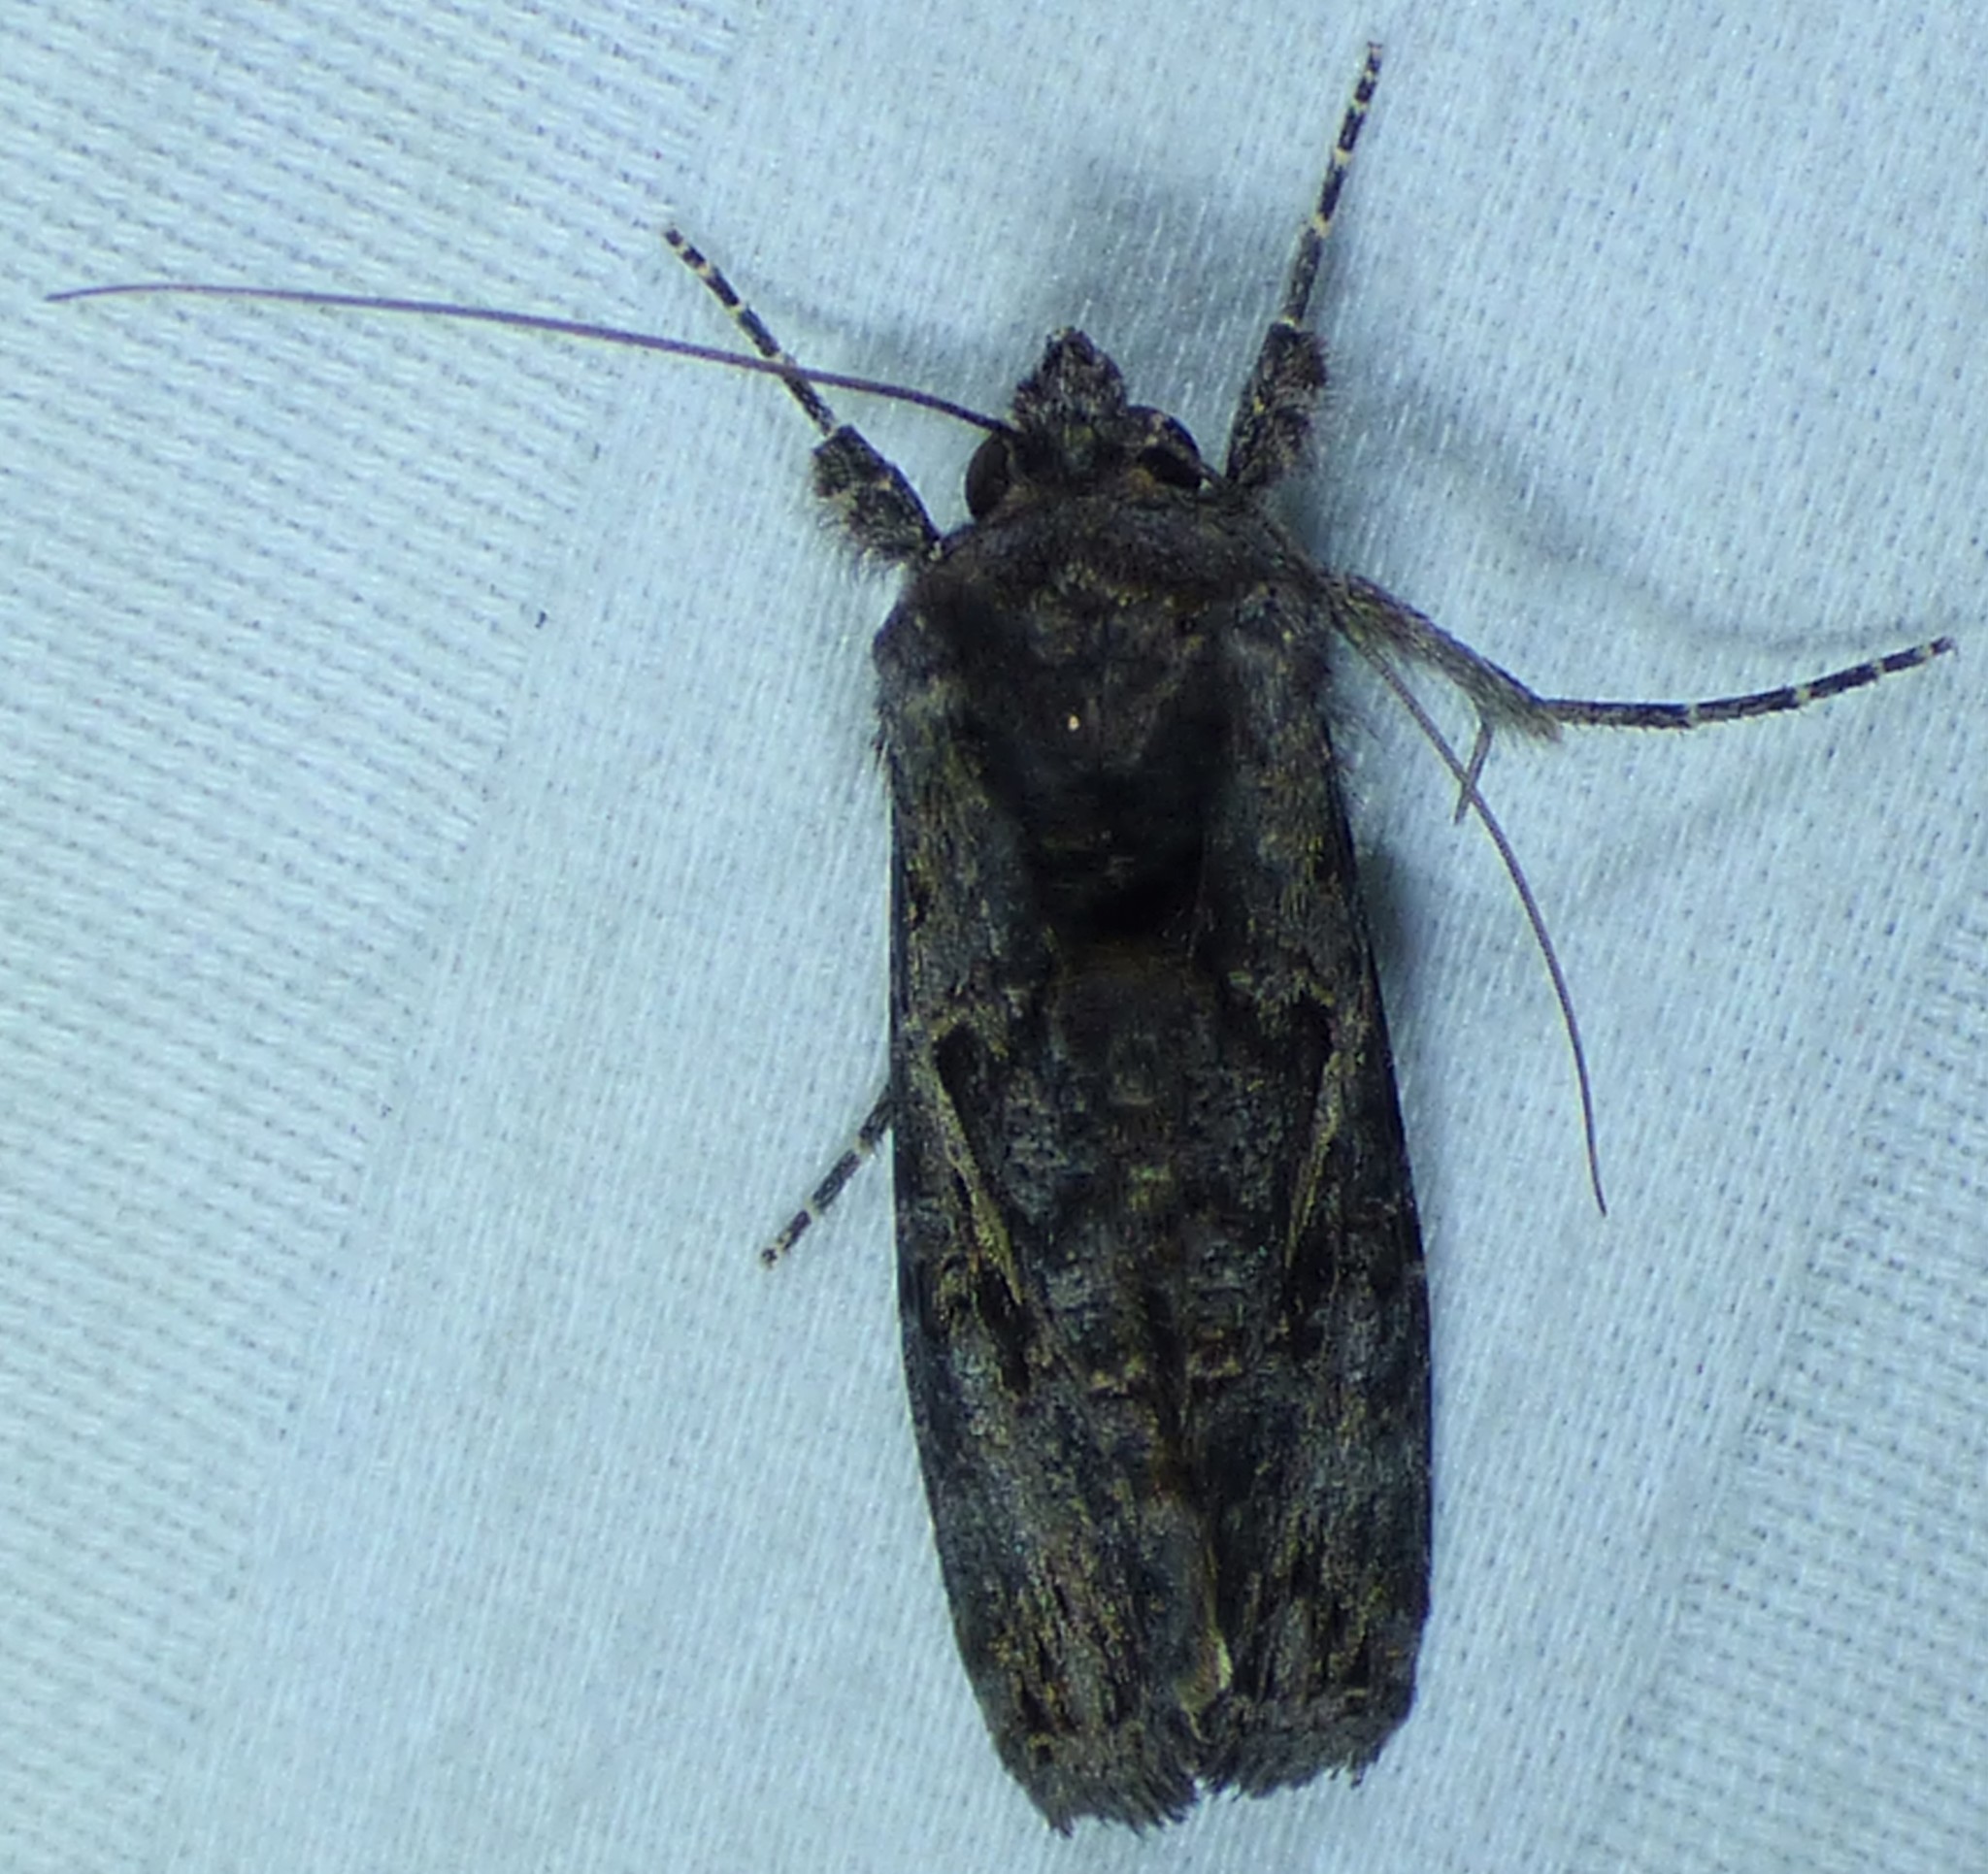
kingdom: Animalia
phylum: Arthropoda
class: Insecta
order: Lepidoptera
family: Noctuidae
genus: Ctenoplusia
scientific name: Ctenoplusia oxygramma
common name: Sharp-stigma looper moth
